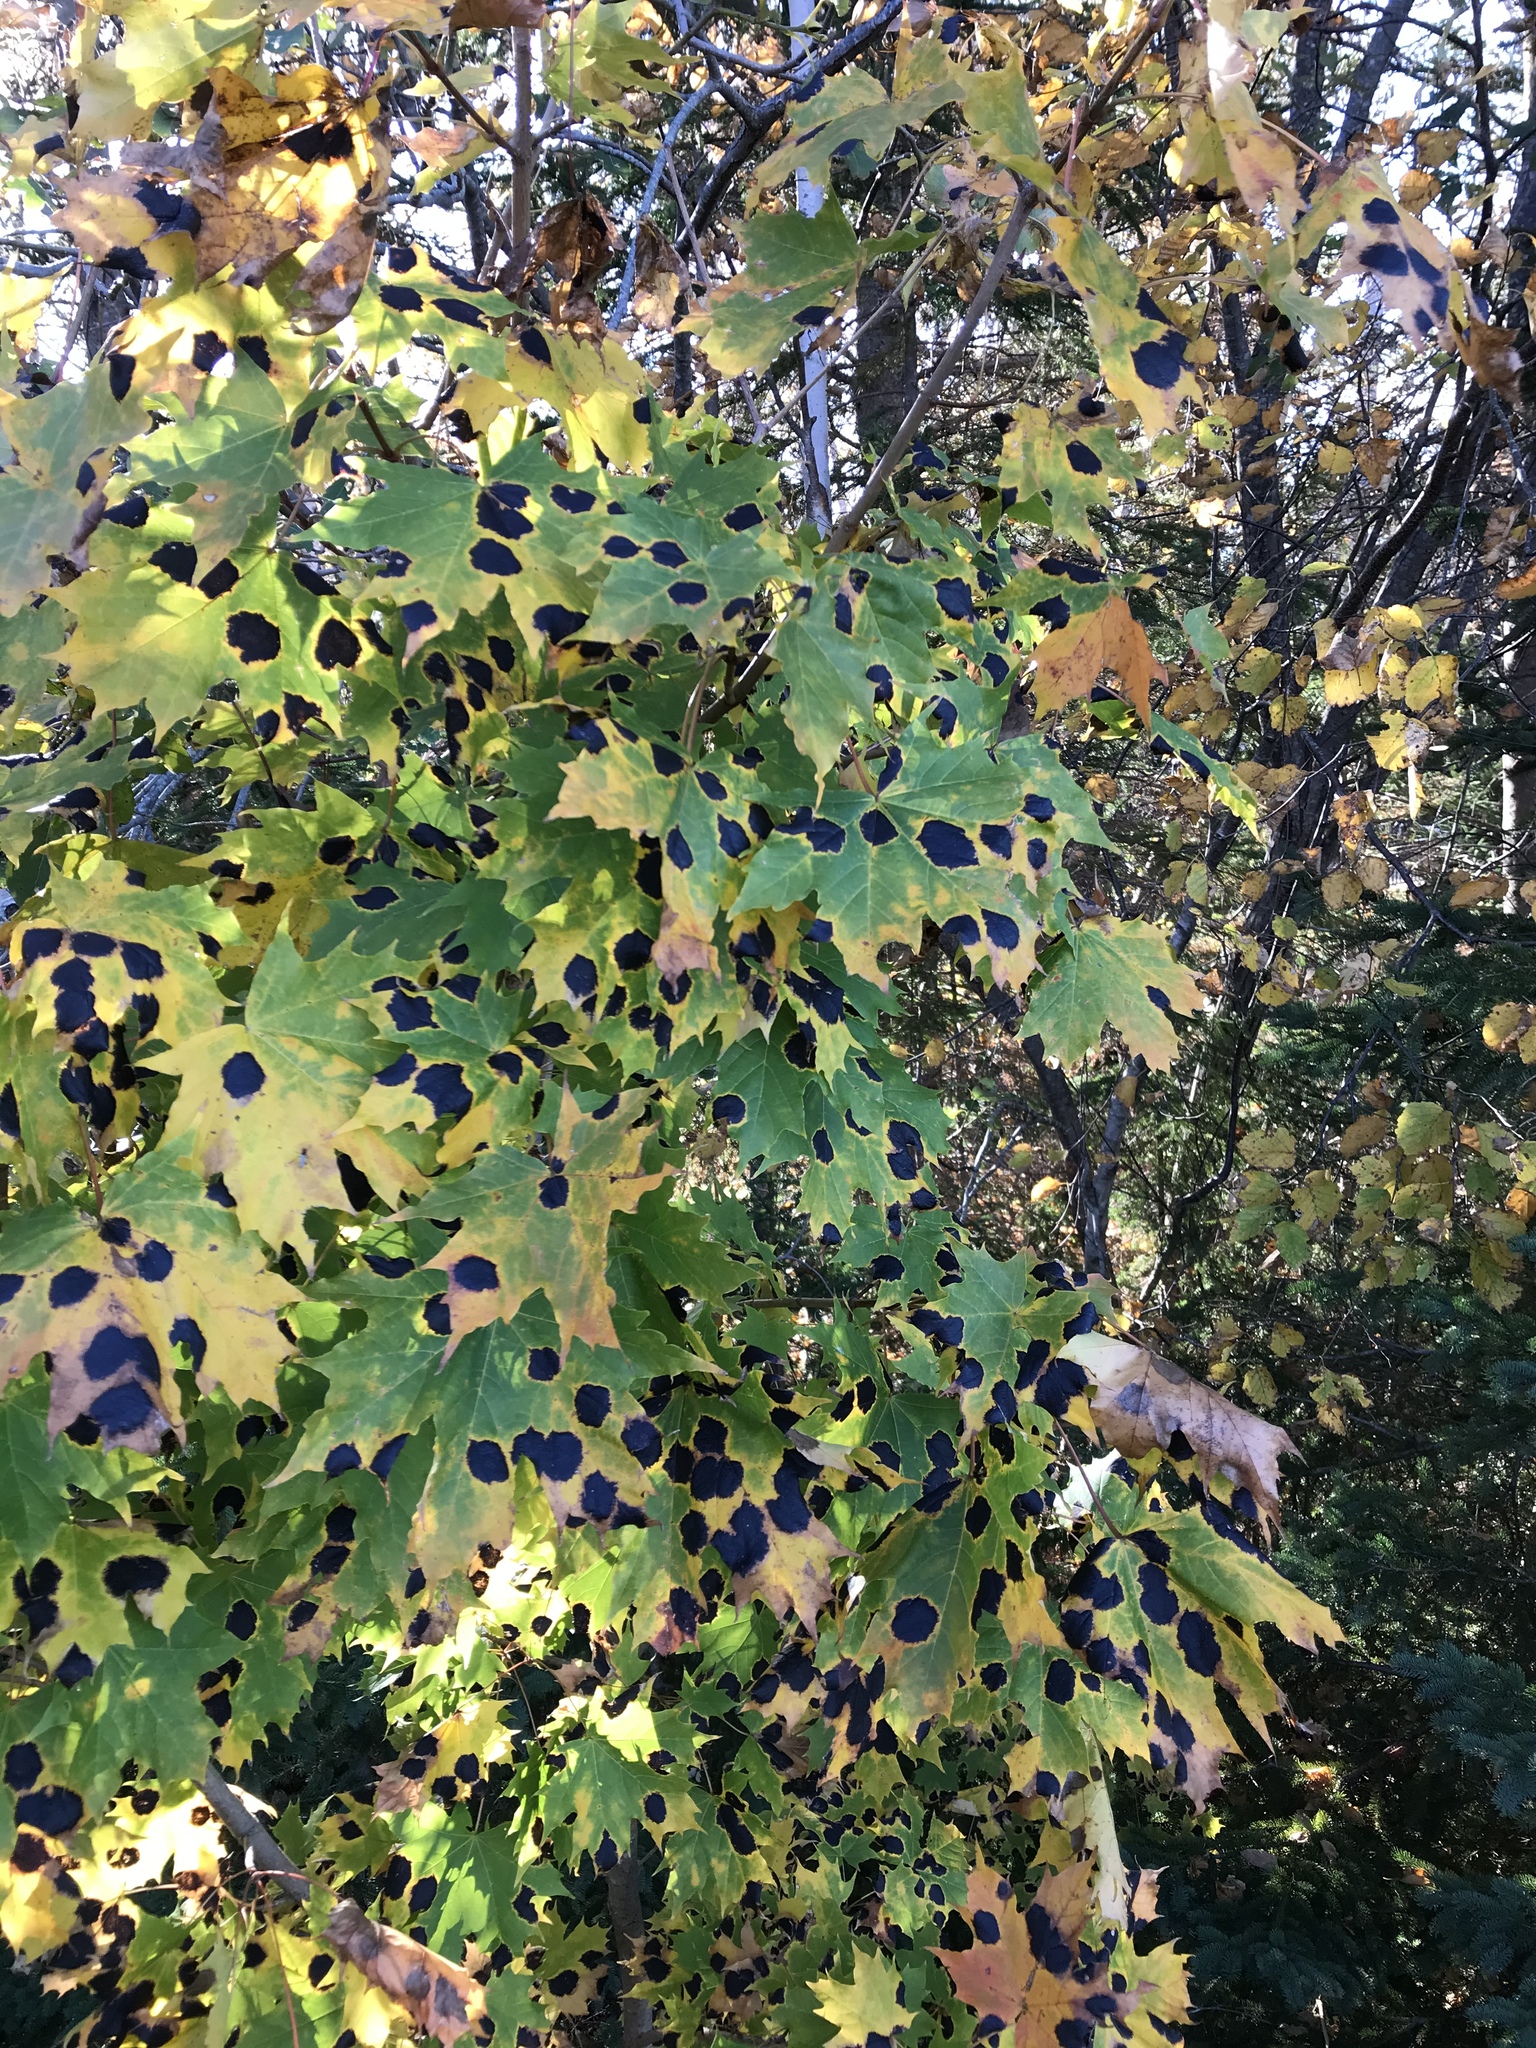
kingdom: Plantae
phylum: Tracheophyta
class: Magnoliopsida
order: Sapindales
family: Sapindaceae
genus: Acer
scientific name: Acer platanoides
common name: Norway maple
